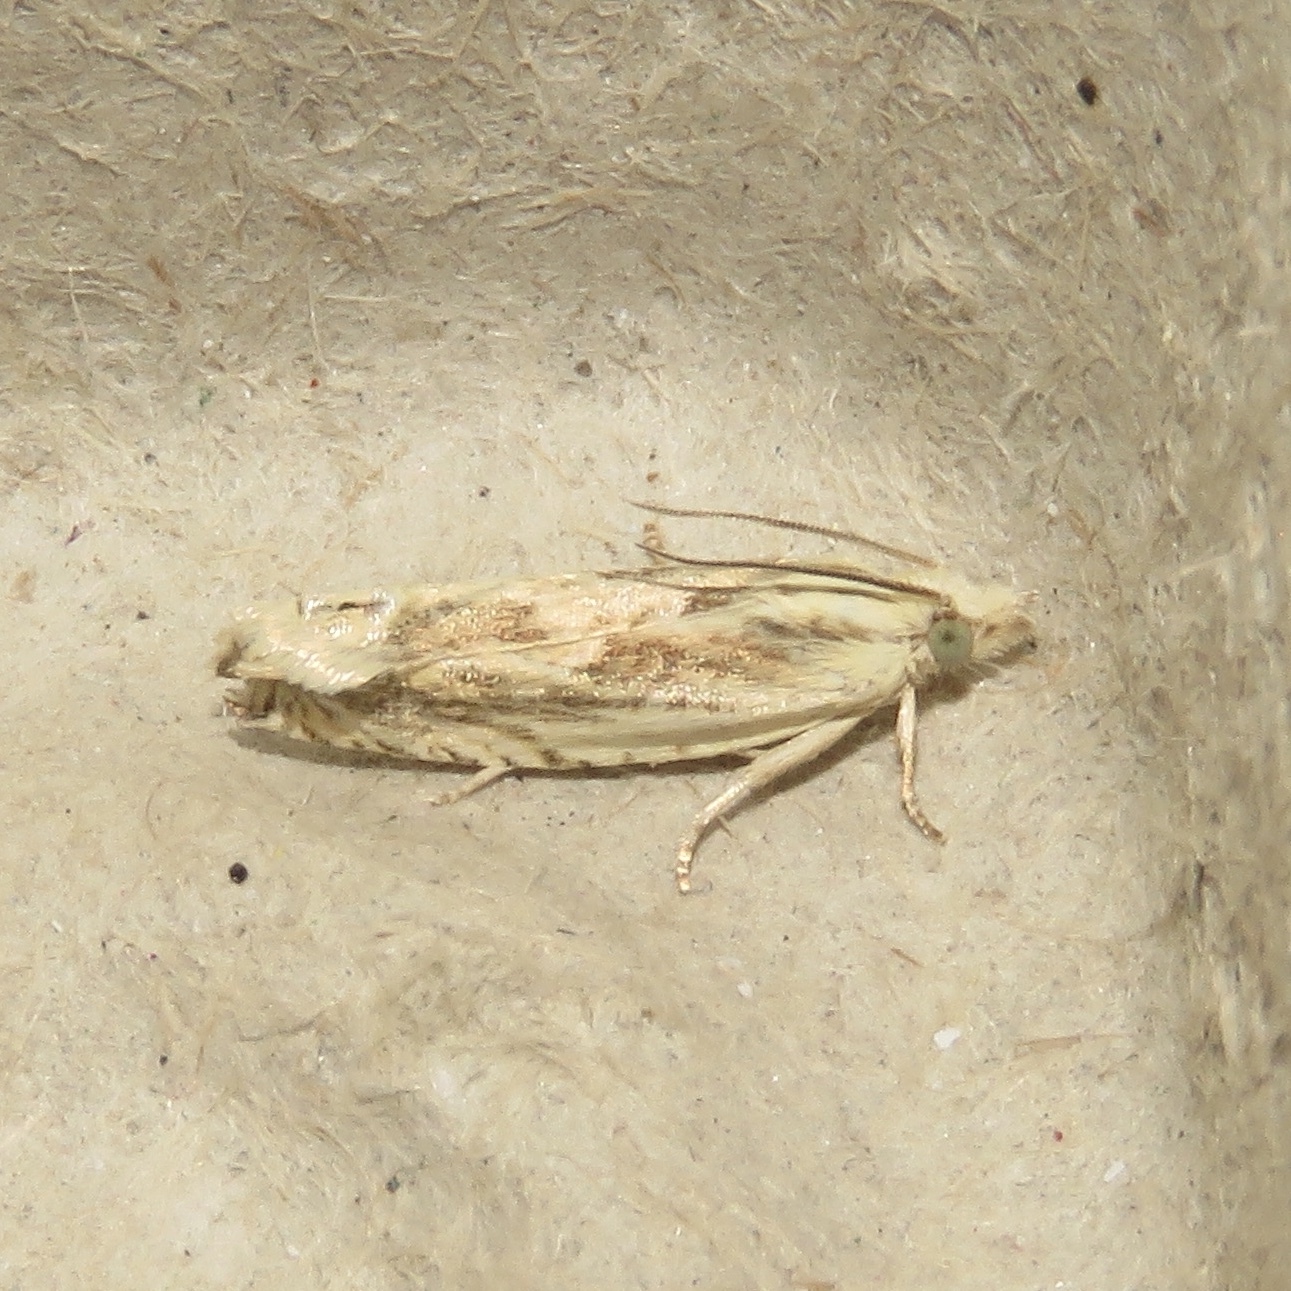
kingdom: Animalia
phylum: Arthropoda
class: Insecta
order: Lepidoptera
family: Tortricidae
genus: Eucosma
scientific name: Eucosma olivaceana
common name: Olivaceous eucosma moth
